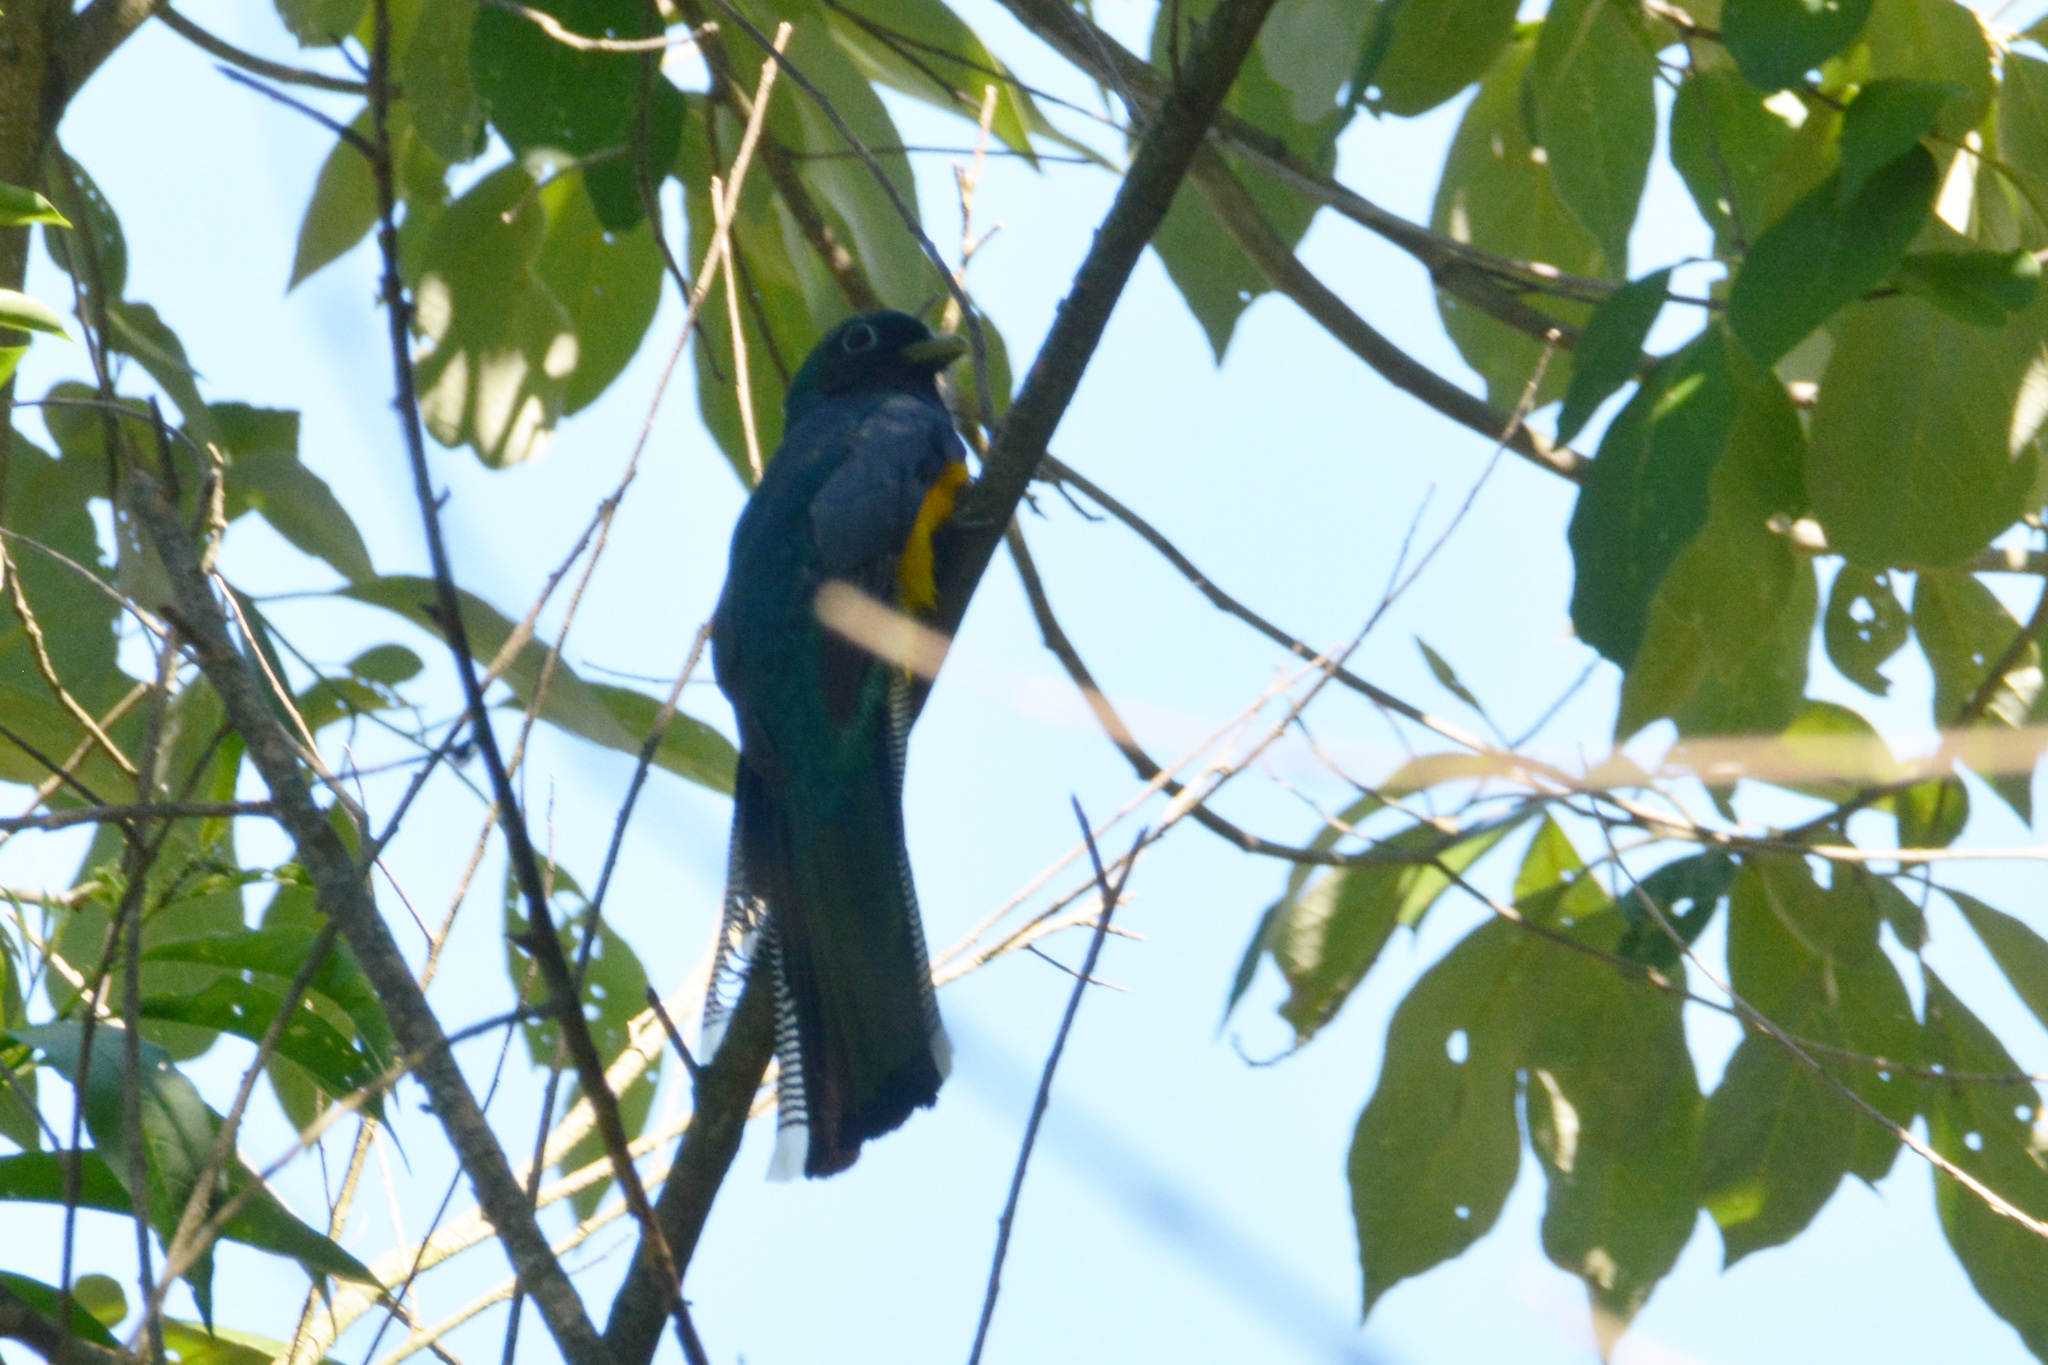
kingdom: Animalia
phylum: Chordata
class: Aves
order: Trogoniformes
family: Trogonidae
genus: Trogon
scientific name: Trogon rufus
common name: Black-throated trogon
